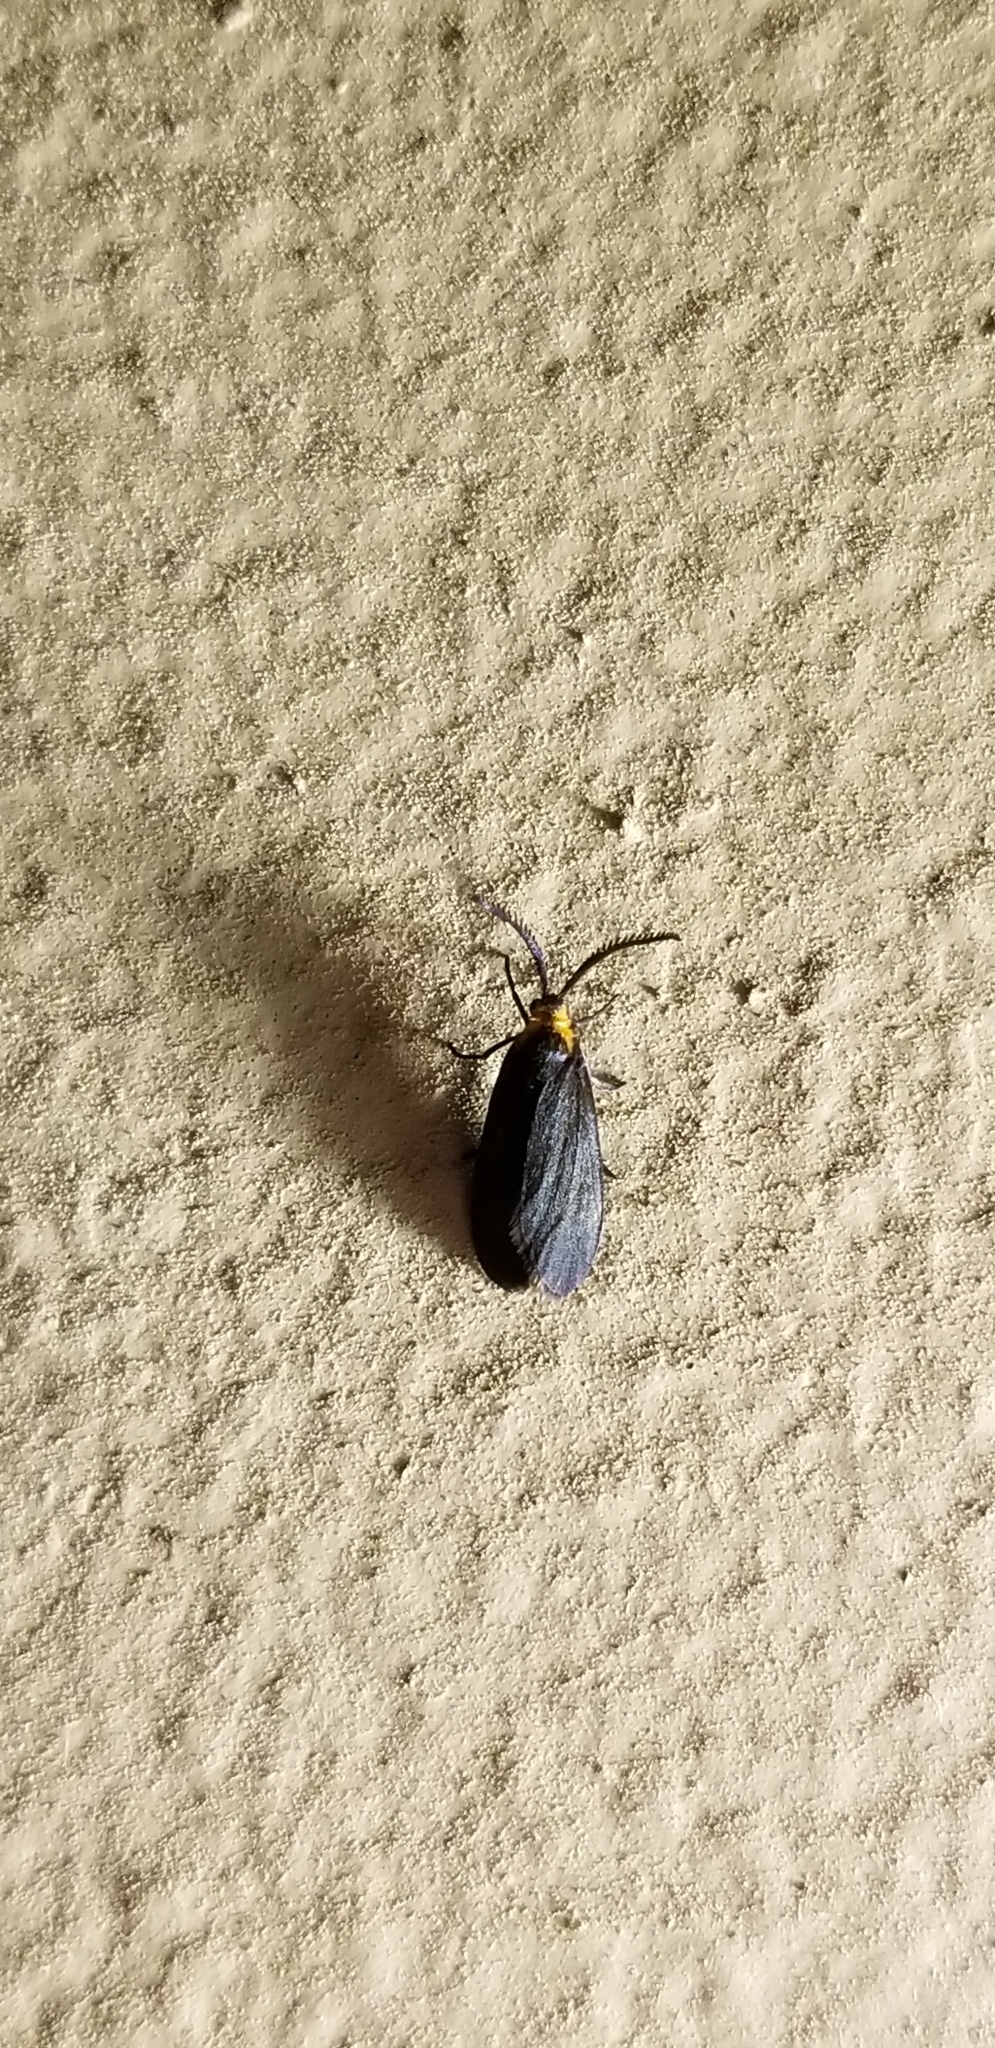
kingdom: Animalia
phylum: Arthropoda
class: Insecta
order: Lepidoptera
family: Zygaenidae
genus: Acoloithus
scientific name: Acoloithus falsarius
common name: Clemens' false skeletonizer
